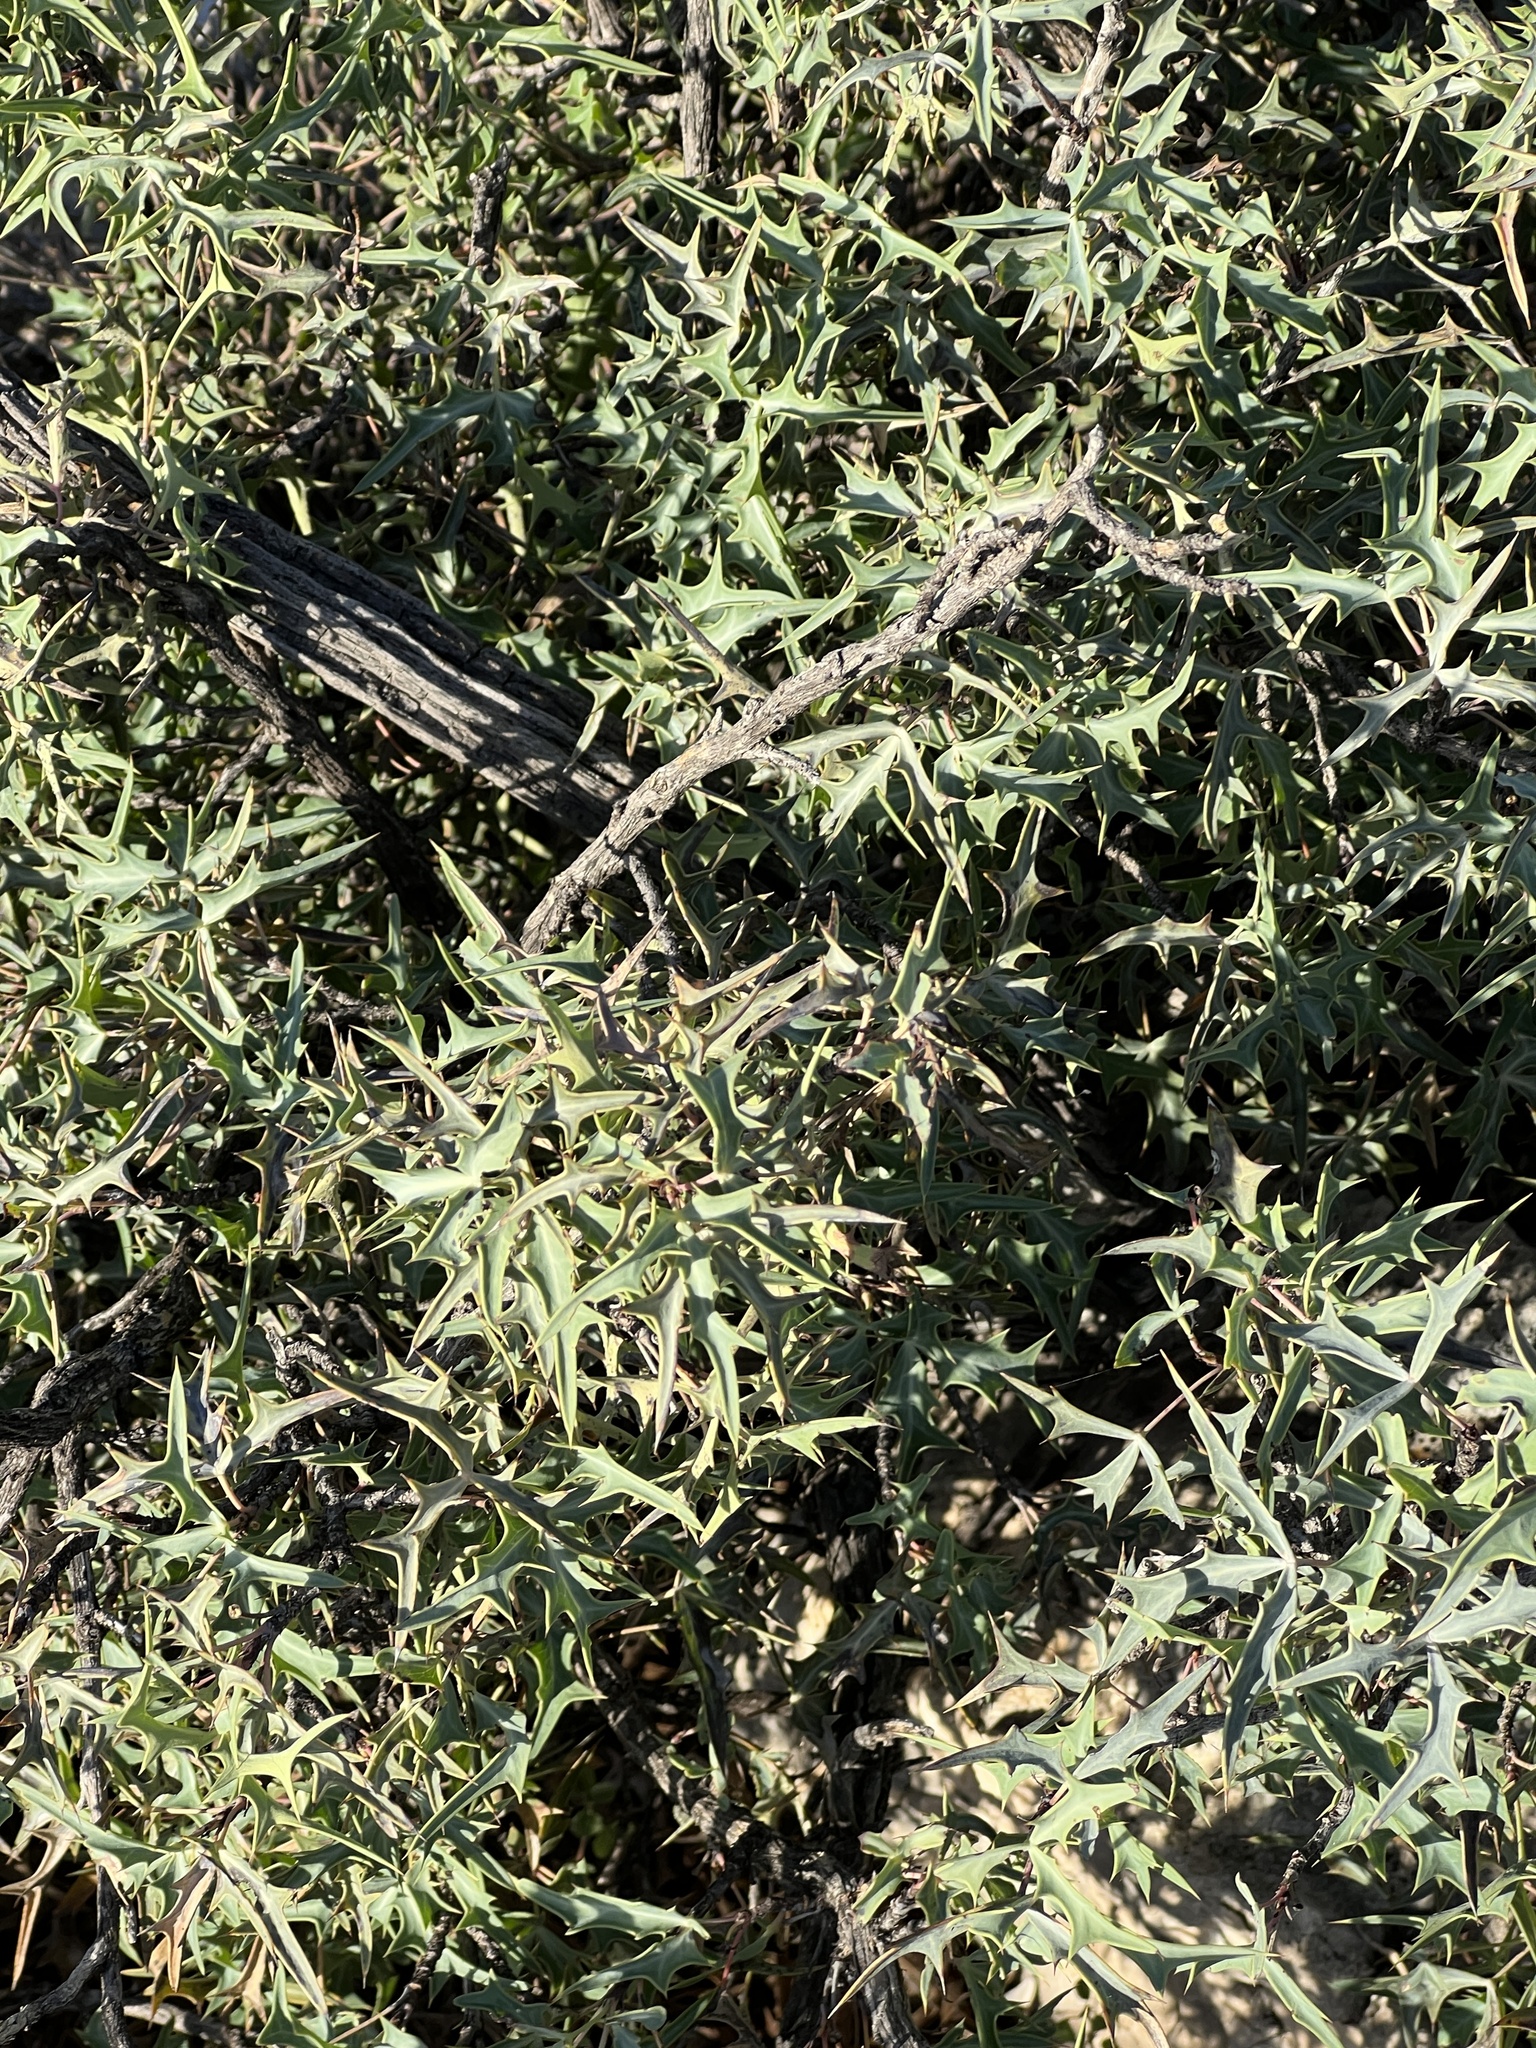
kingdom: Plantae
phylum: Tracheophyta
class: Magnoliopsida
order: Ranunculales
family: Berberidaceae
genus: Alloberberis
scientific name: Alloberberis trifoliolata
